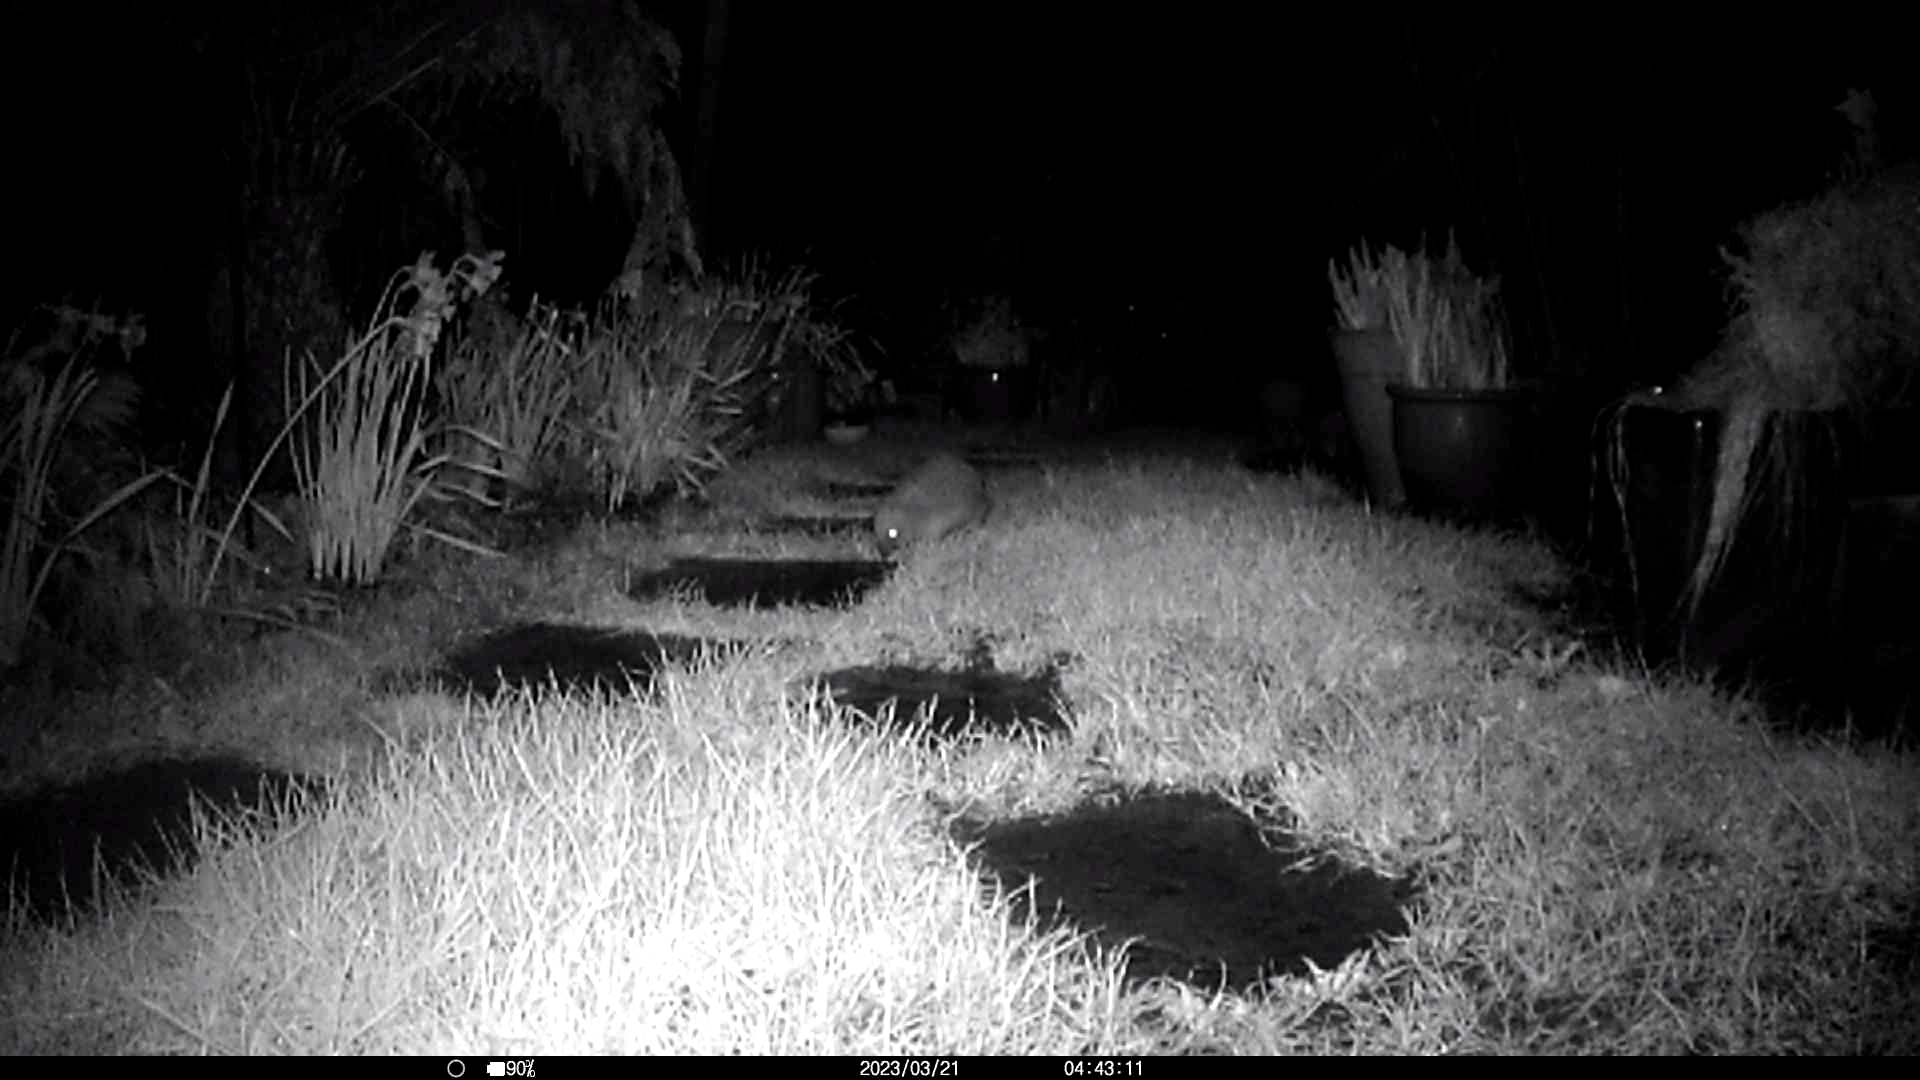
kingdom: Animalia
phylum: Chordata
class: Mammalia
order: Erinaceomorpha
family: Erinaceidae
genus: Erinaceus
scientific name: Erinaceus europaeus
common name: West european hedgehog
